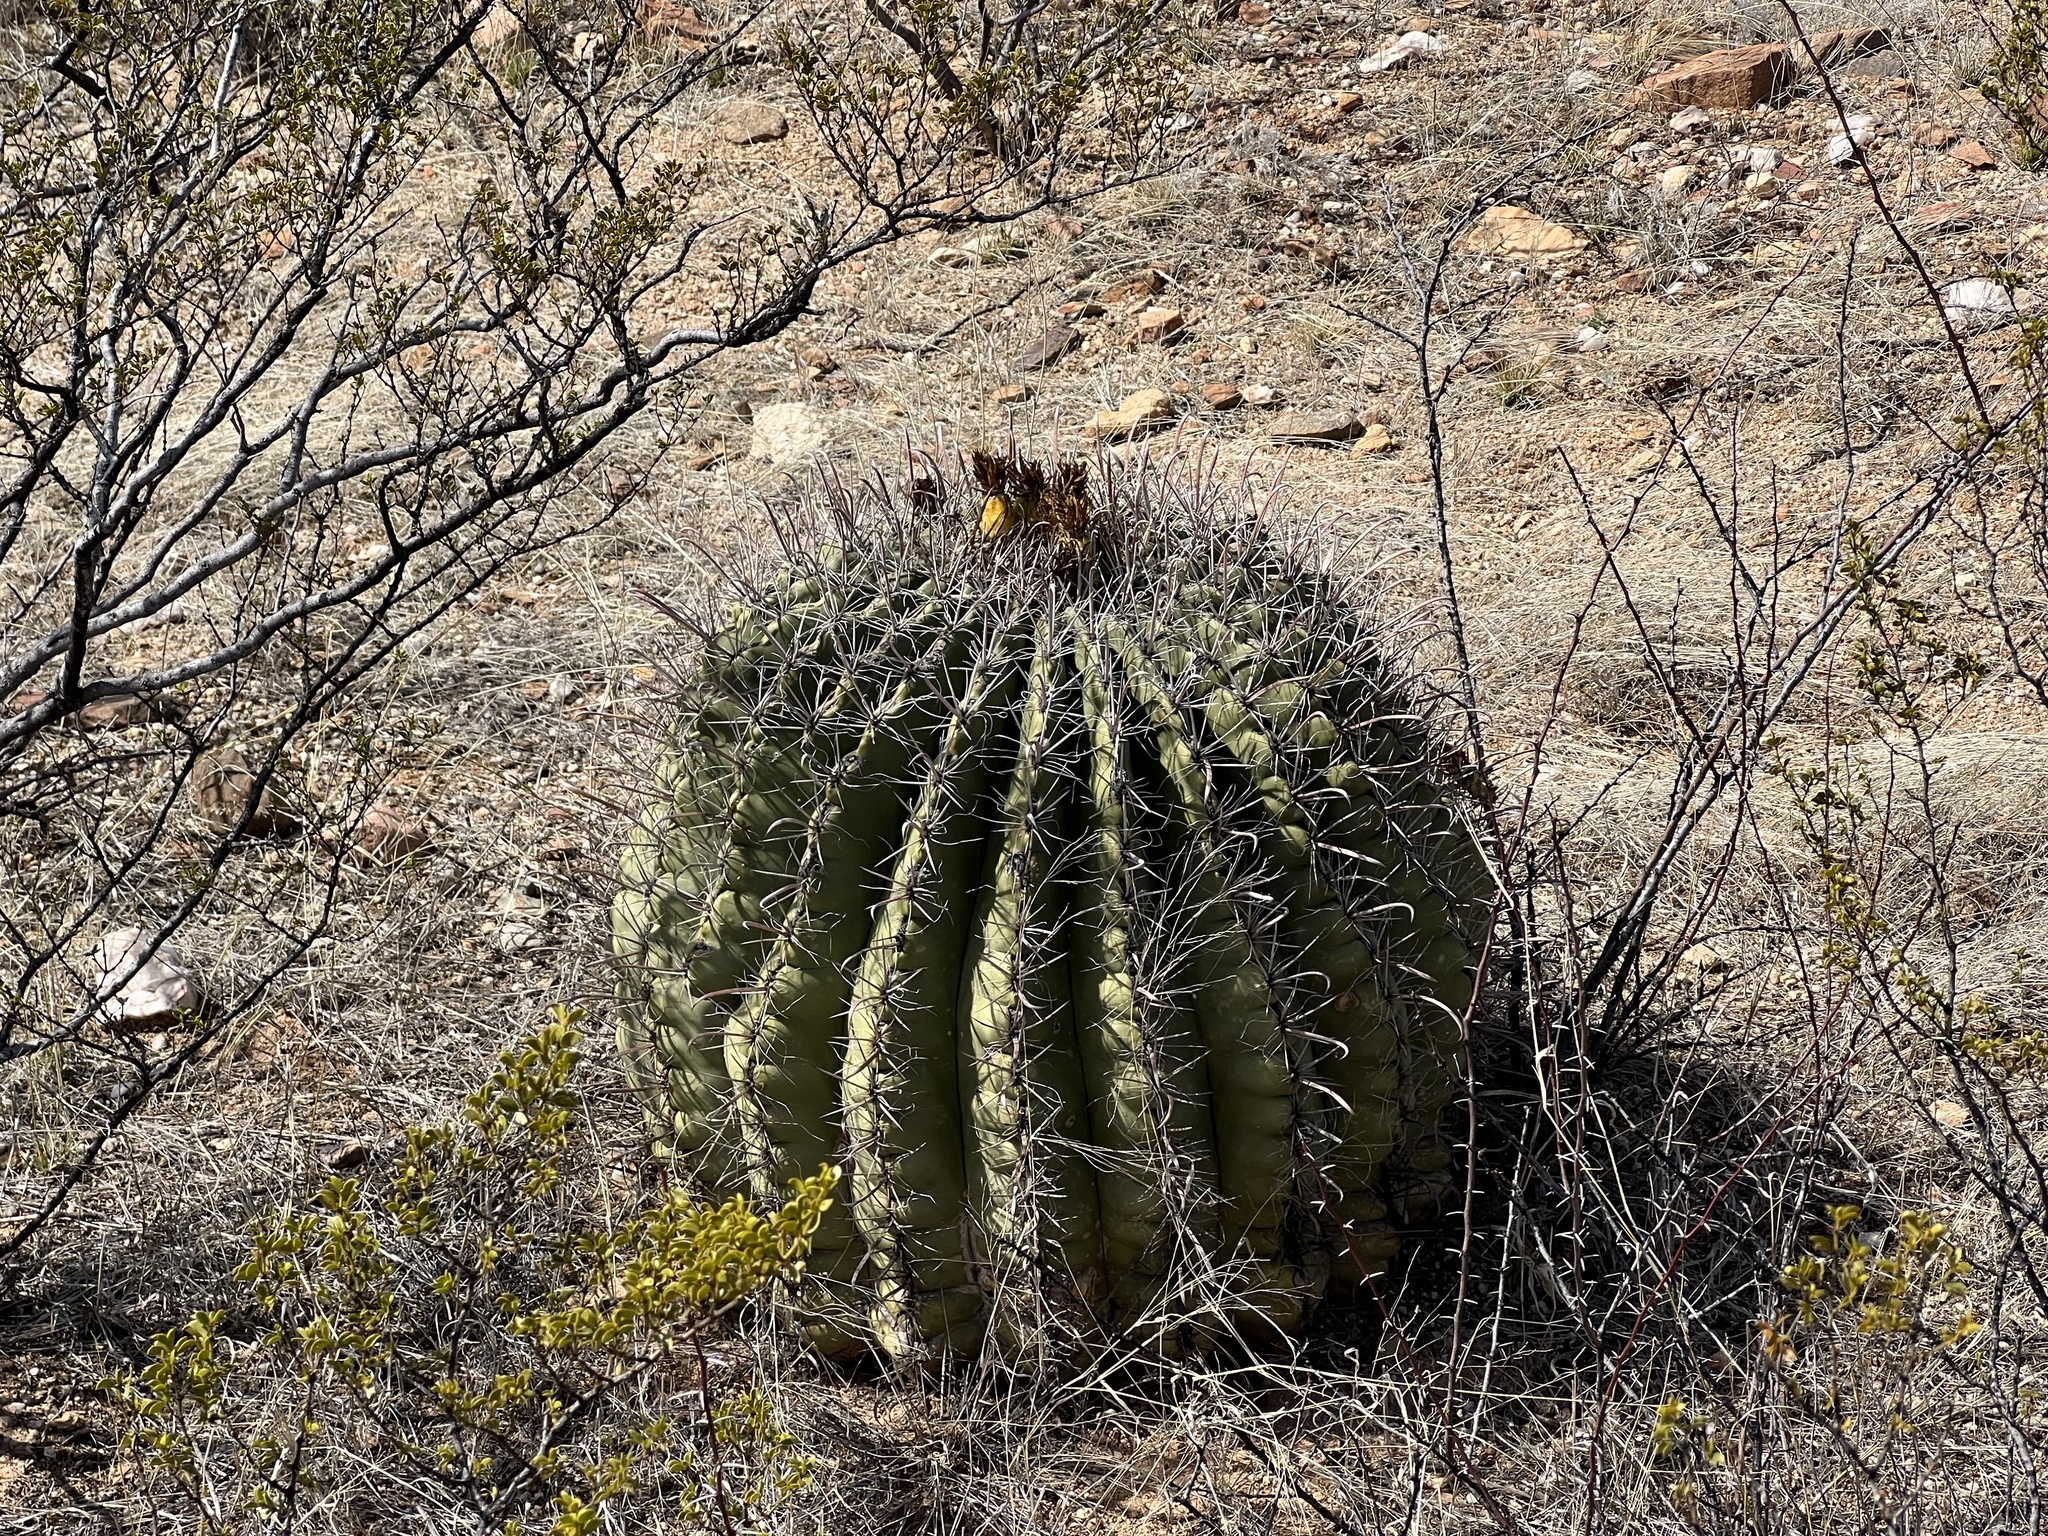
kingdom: Plantae
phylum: Tracheophyta
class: Magnoliopsida
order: Caryophyllales
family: Cactaceae
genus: Ferocactus
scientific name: Ferocactus wislizeni
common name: Candy barrel cactus
